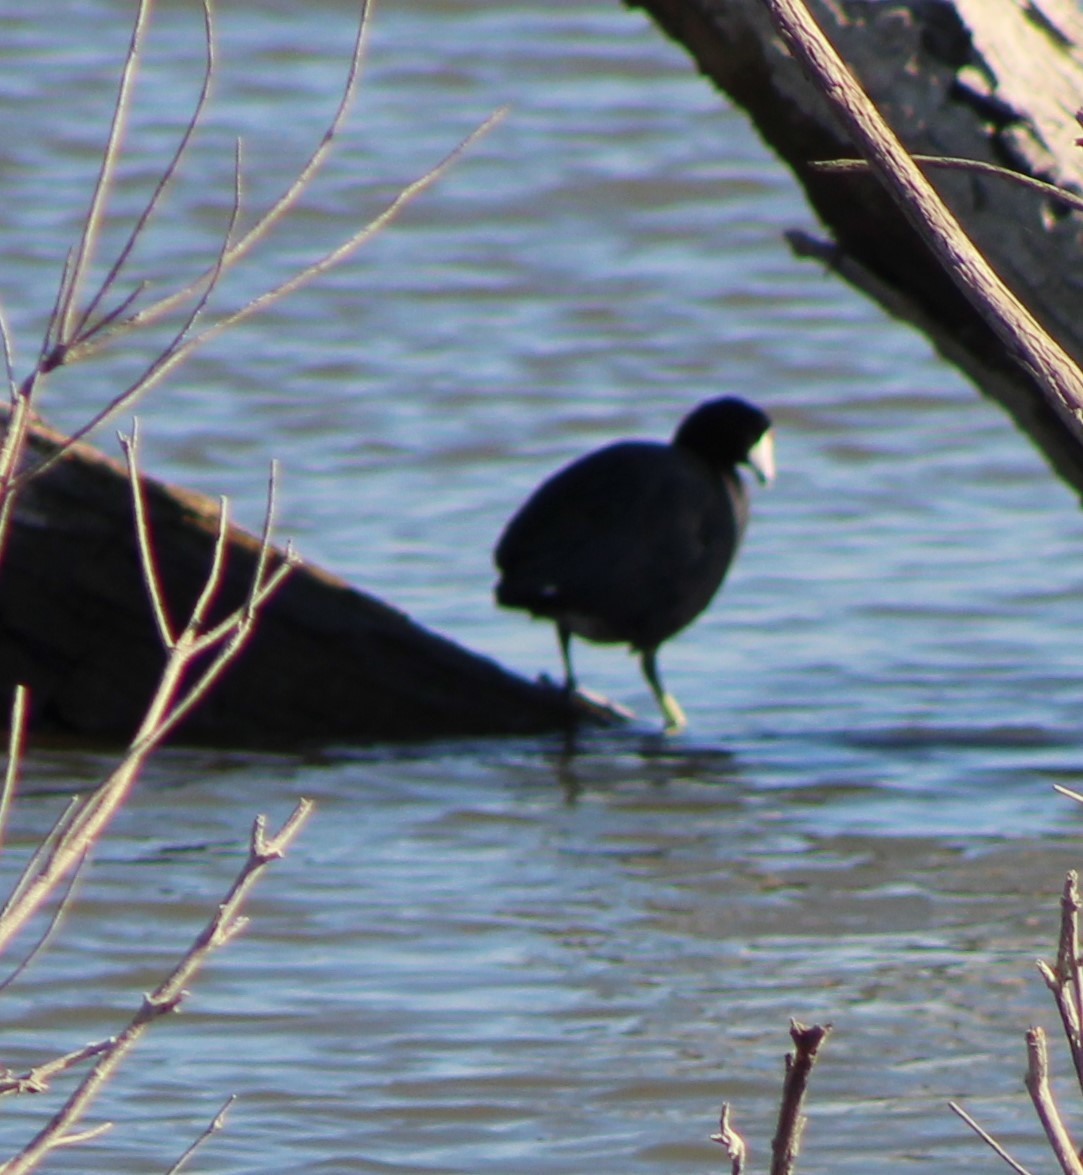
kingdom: Animalia
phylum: Chordata
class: Aves
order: Gruiformes
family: Rallidae
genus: Fulica
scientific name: Fulica americana
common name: American coot
